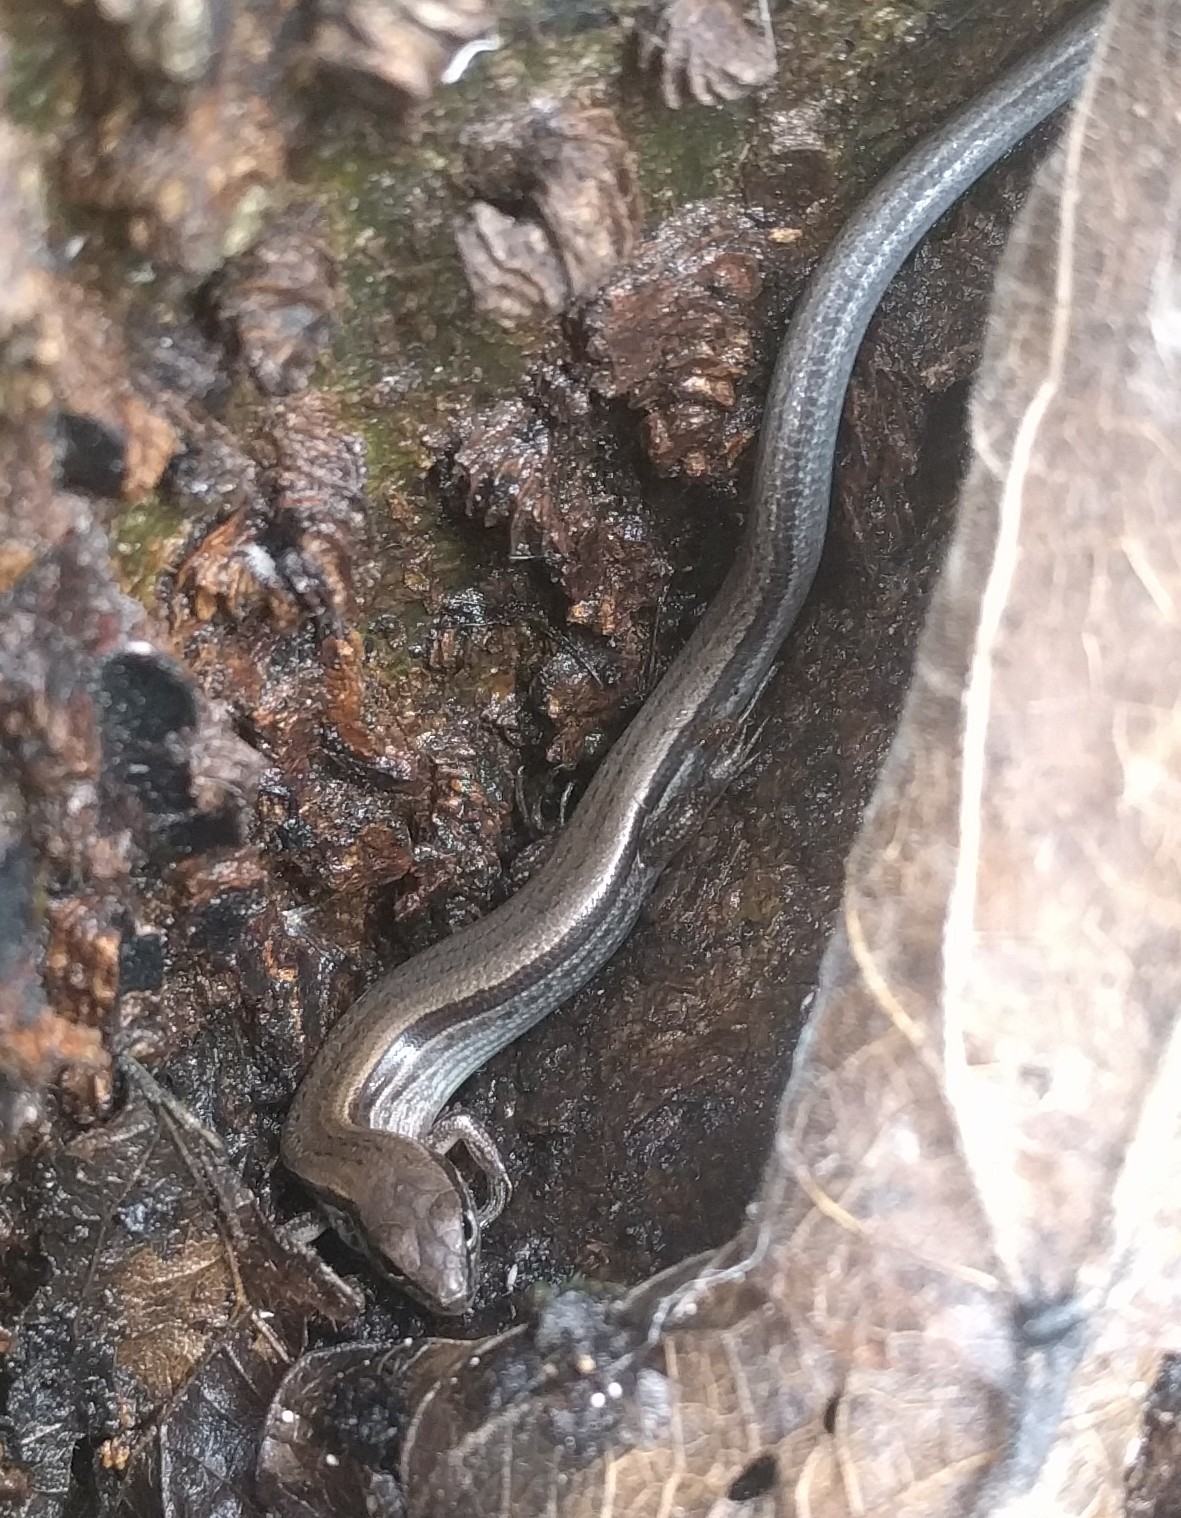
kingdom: Animalia
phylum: Chordata
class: Squamata
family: Scincidae
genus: Scincella
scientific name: Scincella lateralis
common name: Ground skink
